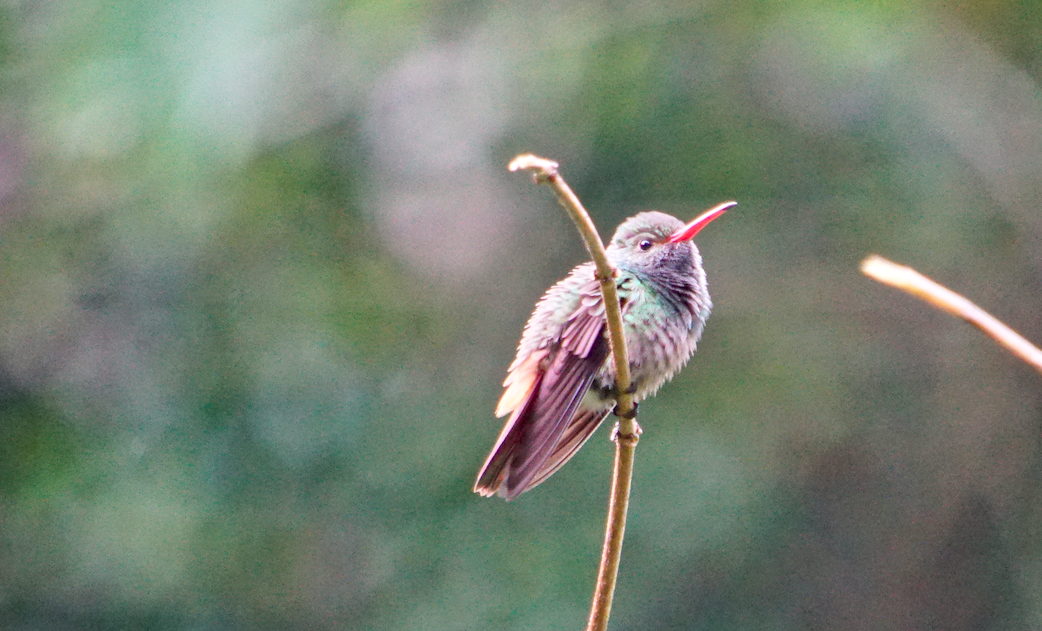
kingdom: Animalia
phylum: Chordata
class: Aves
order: Apodiformes
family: Trochilidae
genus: Amazilia
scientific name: Amazilia tzacatl
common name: Rufous-tailed hummingbird
